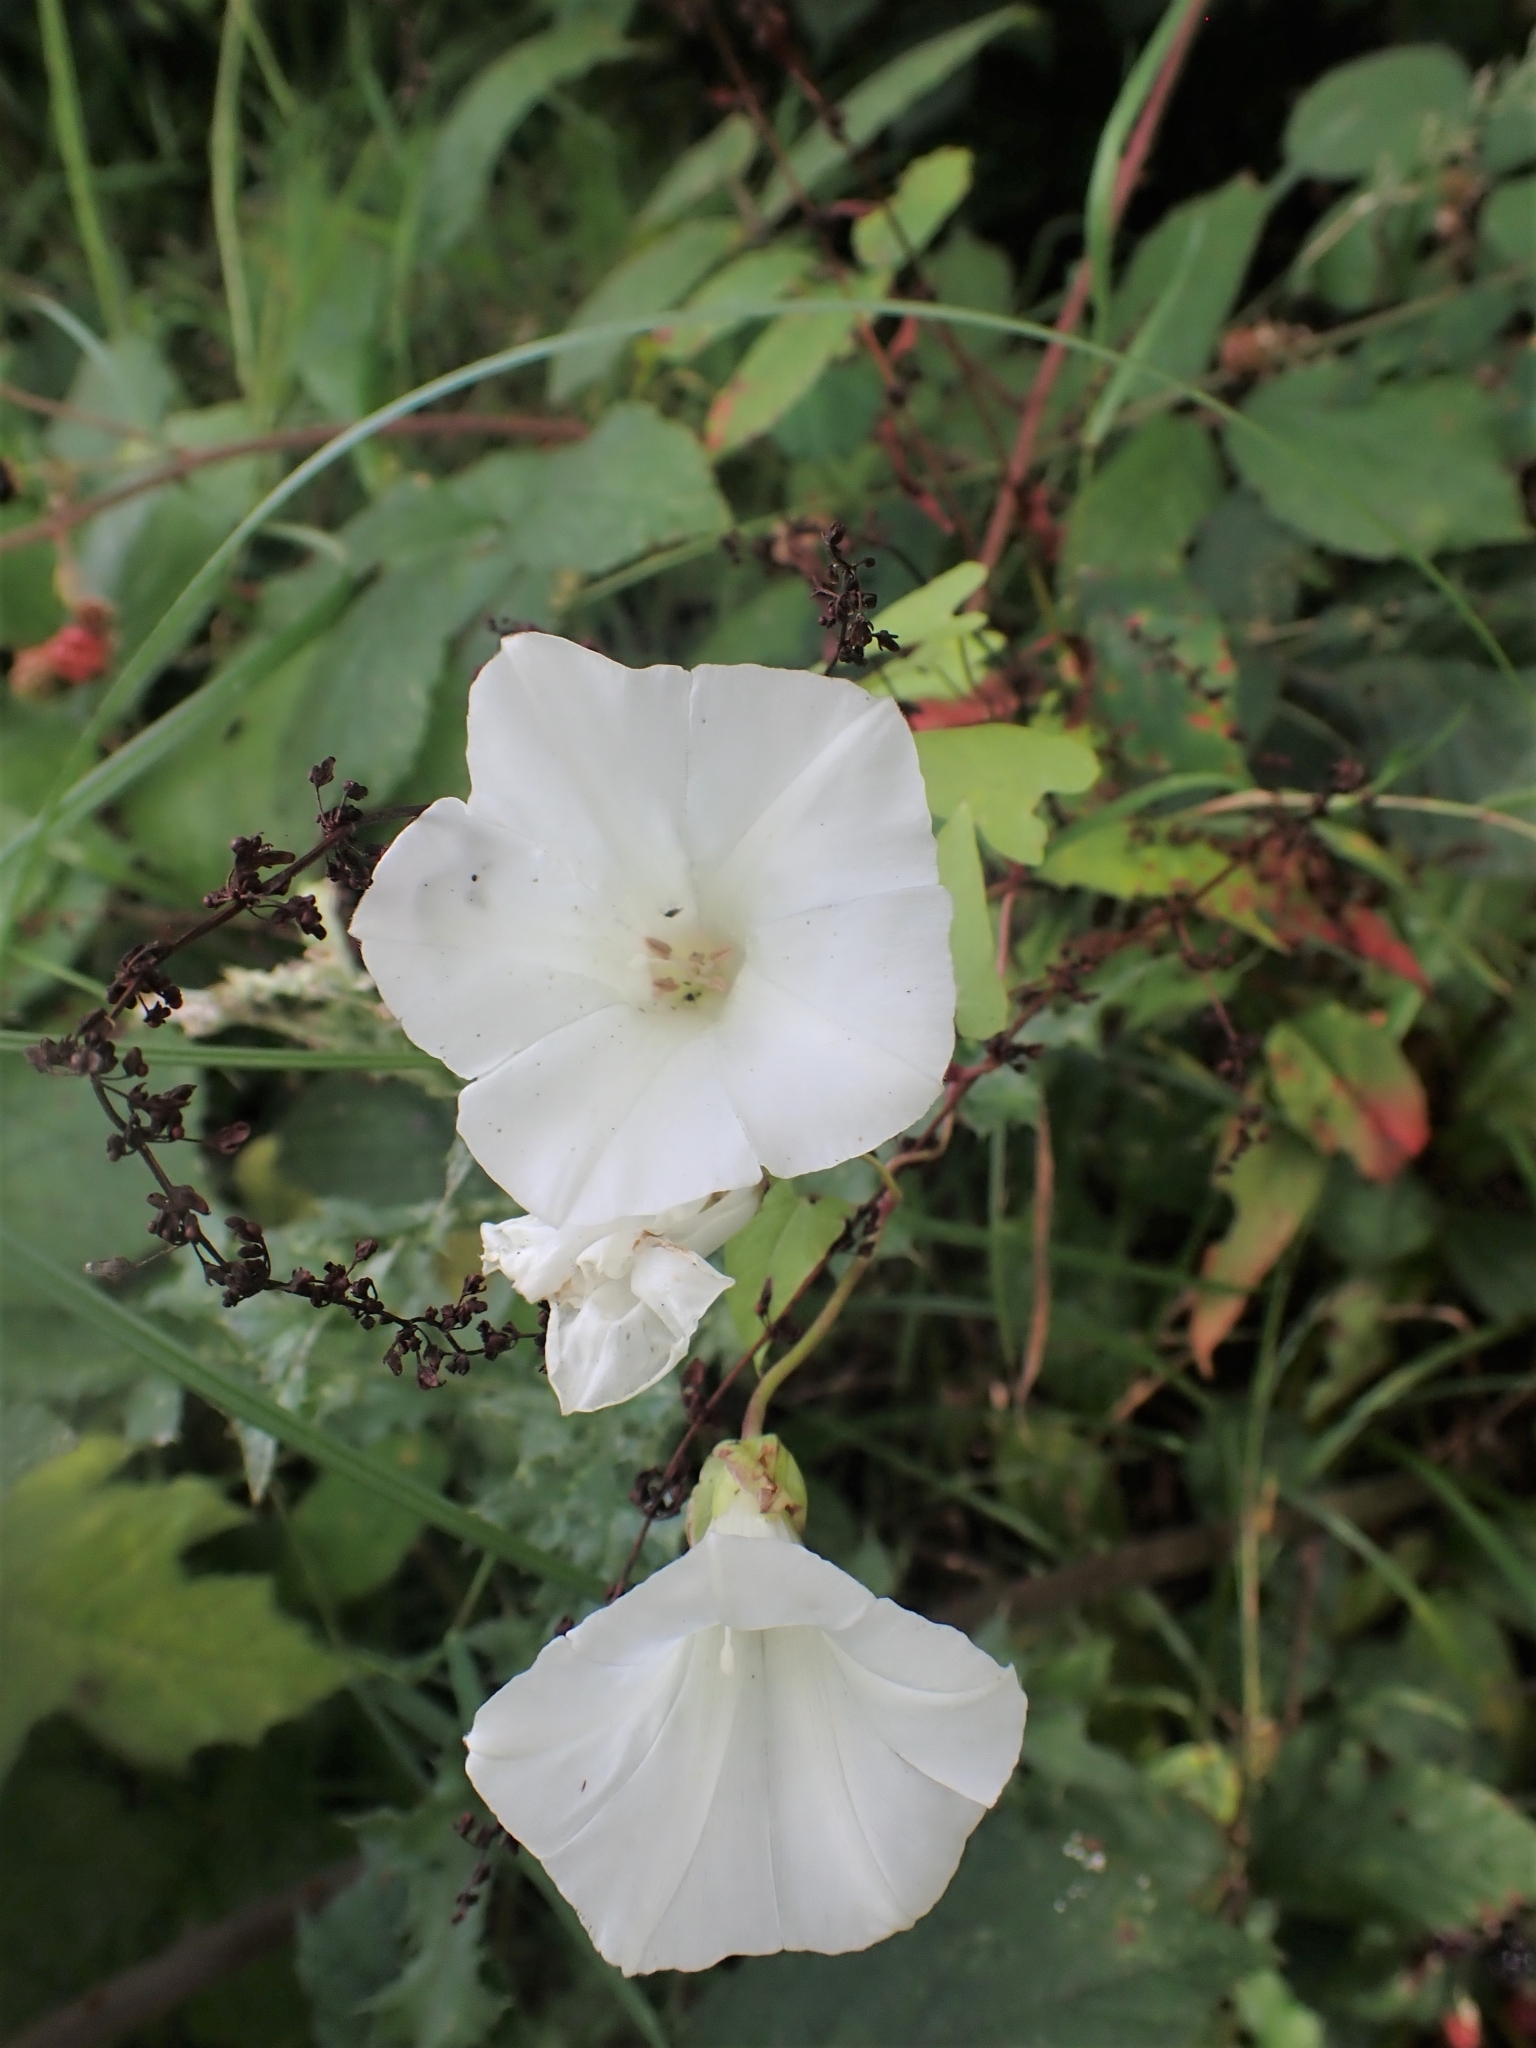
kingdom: Plantae
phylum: Tracheophyta
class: Magnoliopsida
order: Solanales
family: Convolvulaceae
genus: Calystegia
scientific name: Calystegia sepium
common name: Hedge bindweed
